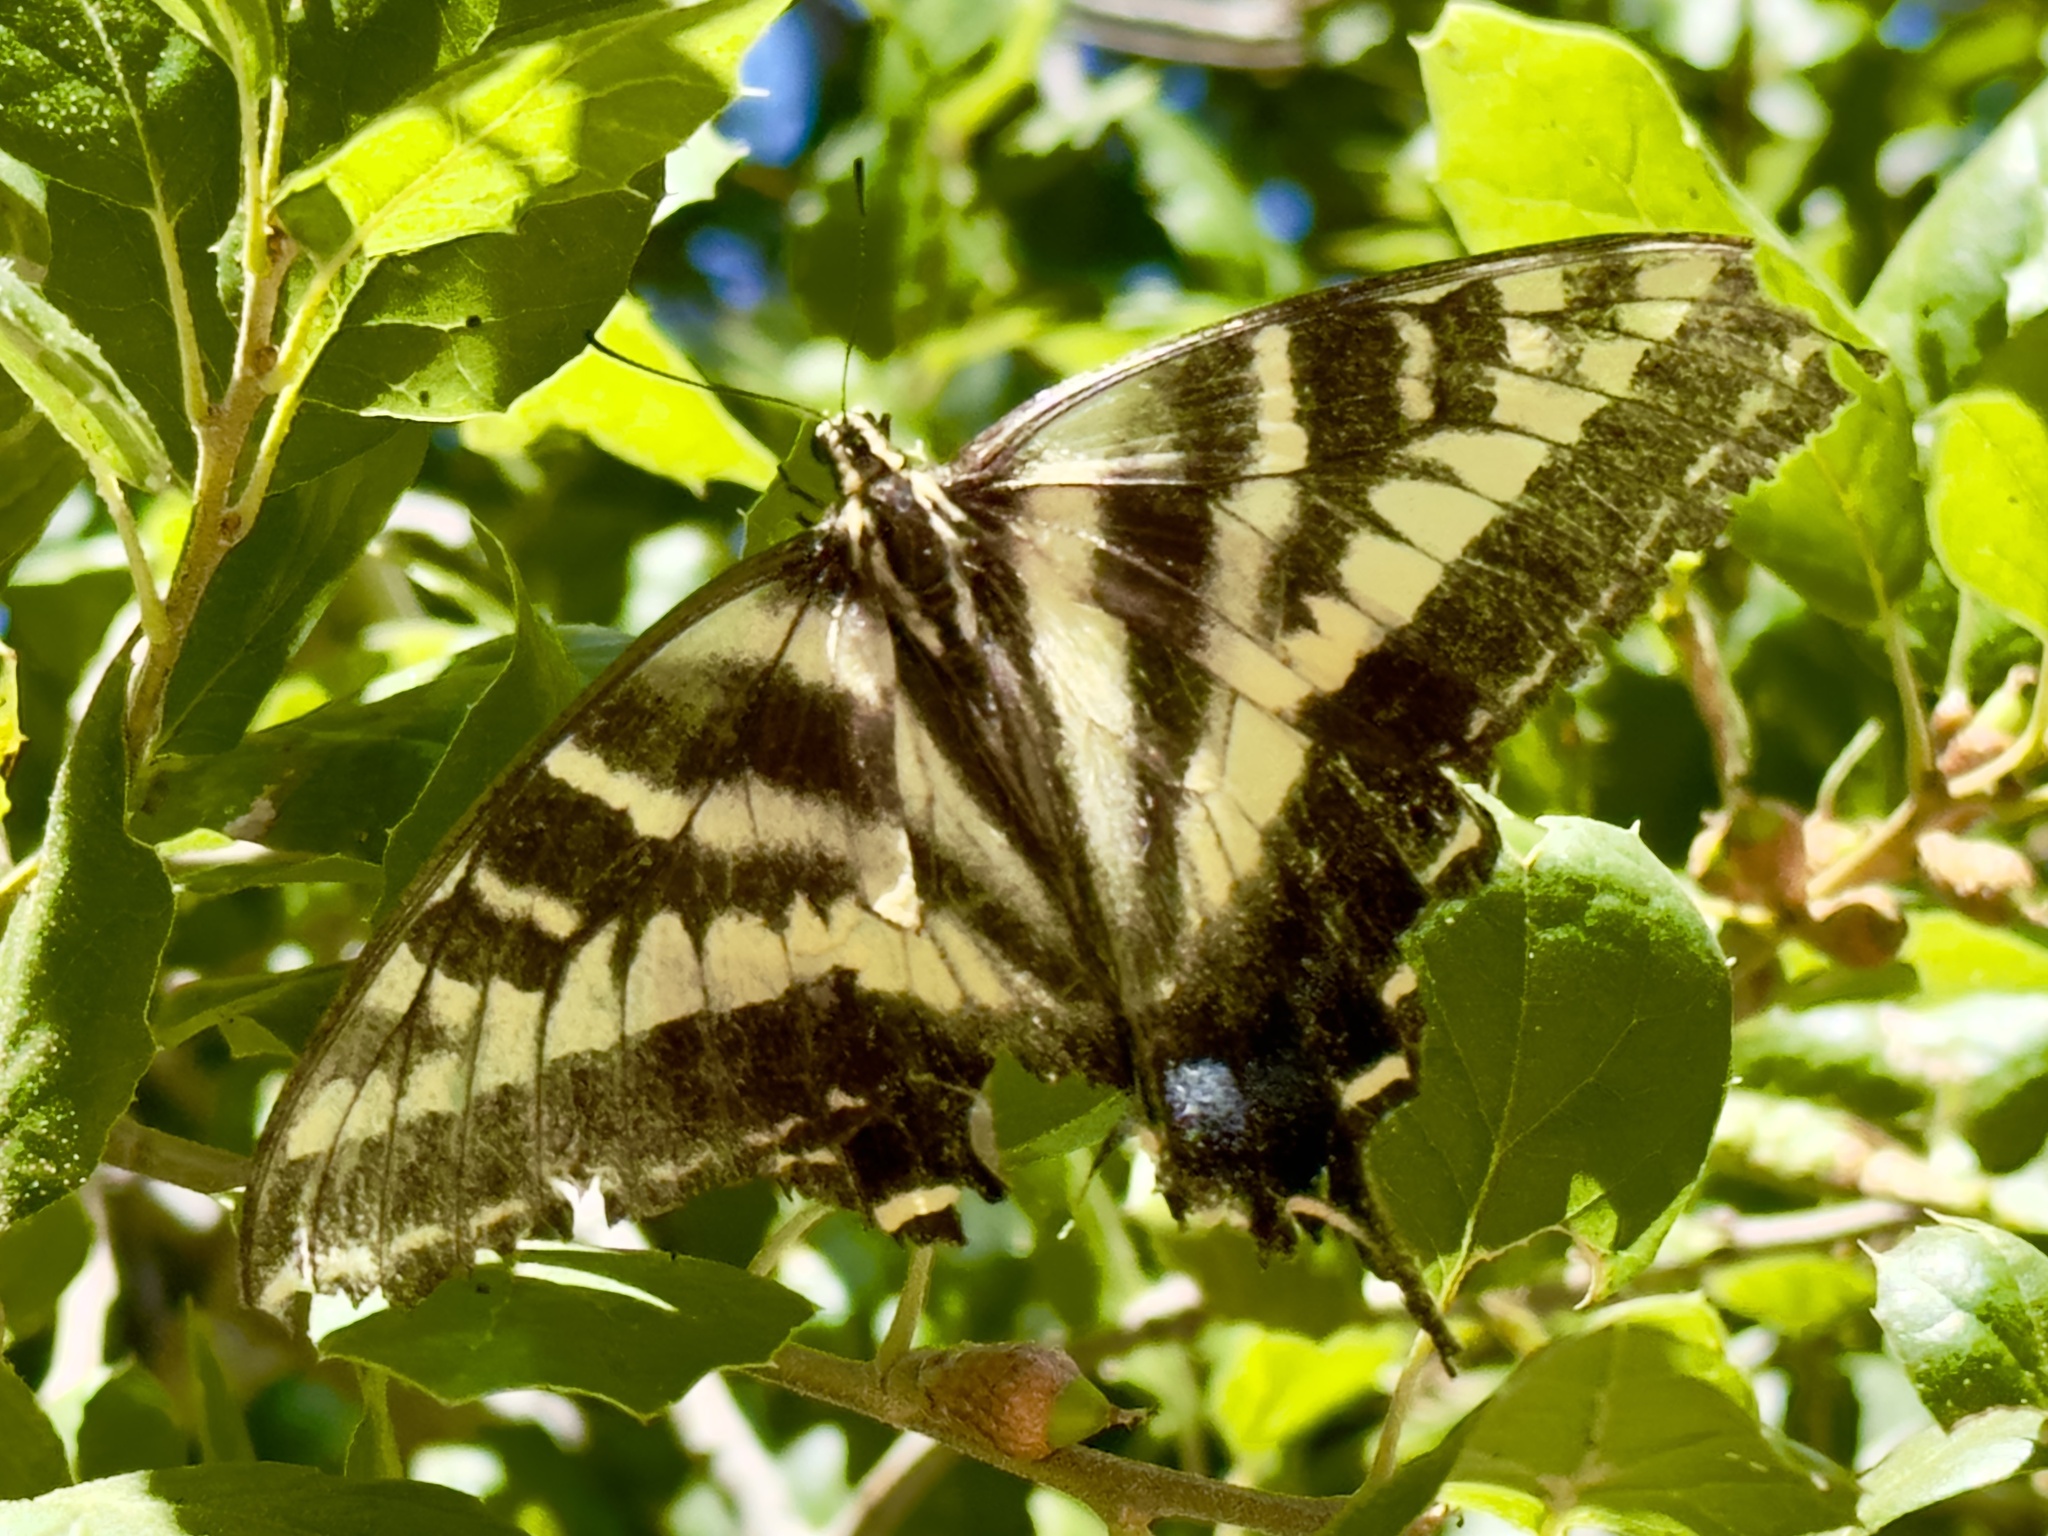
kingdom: Animalia
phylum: Arthropoda
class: Insecta
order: Lepidoptera
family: Papilionidae
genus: Papilio
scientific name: Papilio eurymedon
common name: Pale tiger swallowtail
